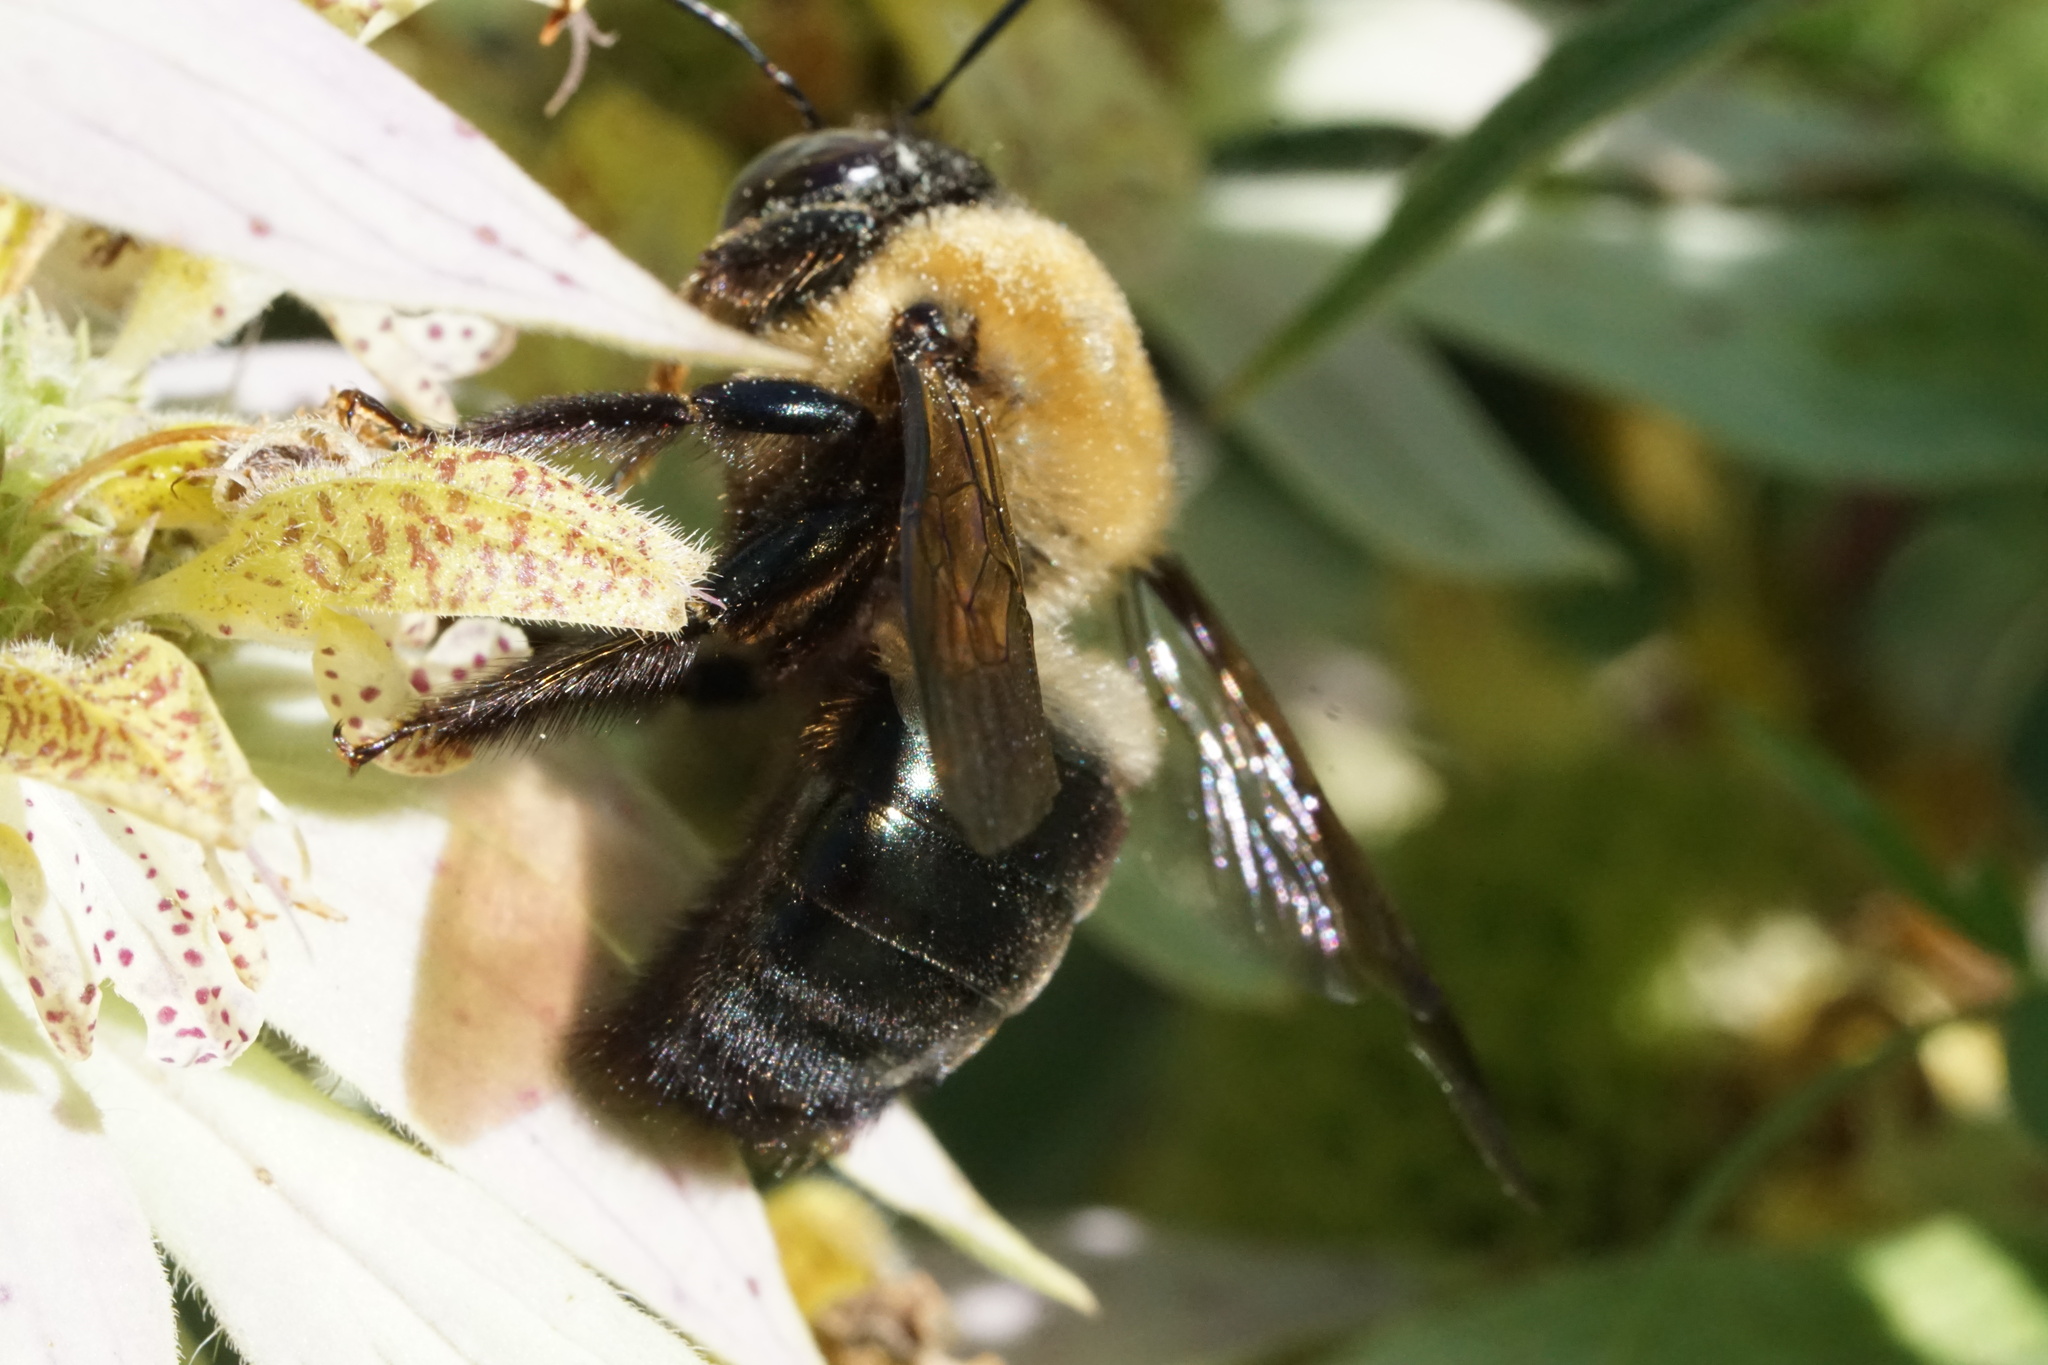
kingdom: Animalia
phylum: Arthropoda
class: Insecta
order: Hymenoptera
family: Apidae
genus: Xylocopa
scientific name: Xylocopa virginica
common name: Carpenter bee
